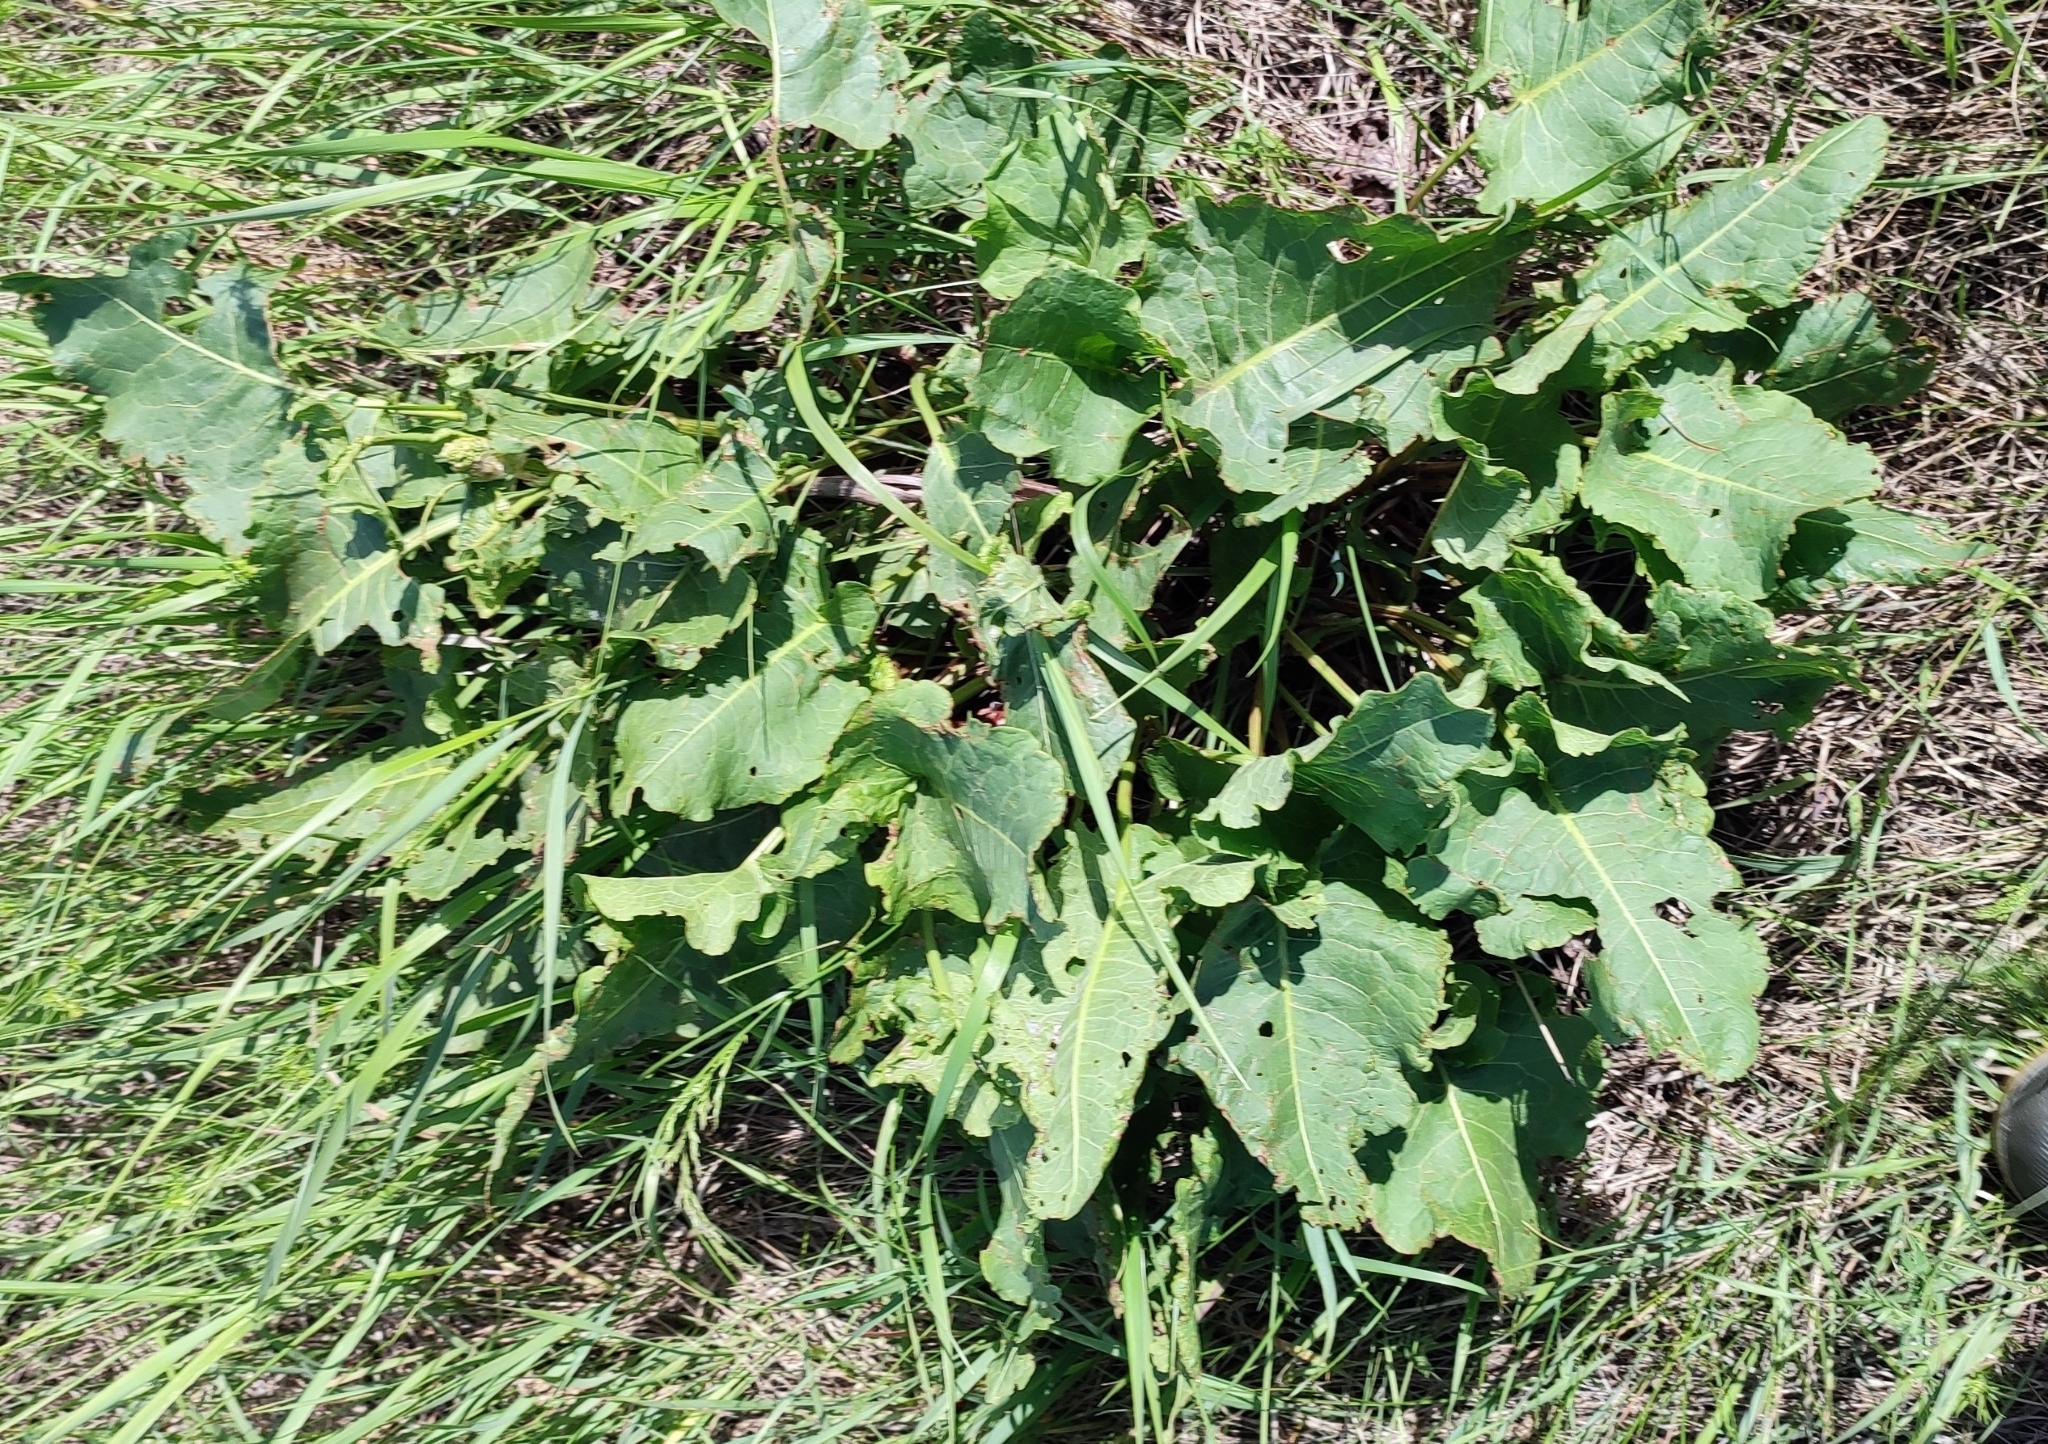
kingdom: Plantae
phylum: Tracheophyta
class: Magnoliopsida
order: Caryophyllales
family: Polygonaceae
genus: Rumex
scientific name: Rumex confertus
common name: Russian dock
